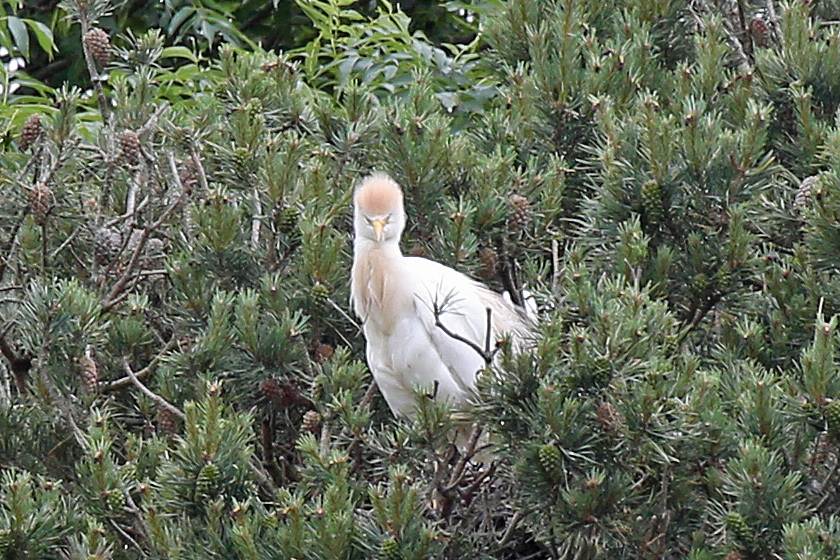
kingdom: Animalia
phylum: Chordata
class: Aves
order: Pelecaniformes
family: Ardeidae
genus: Bubulcus
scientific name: Bubulcus ibis
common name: Cattle egret
